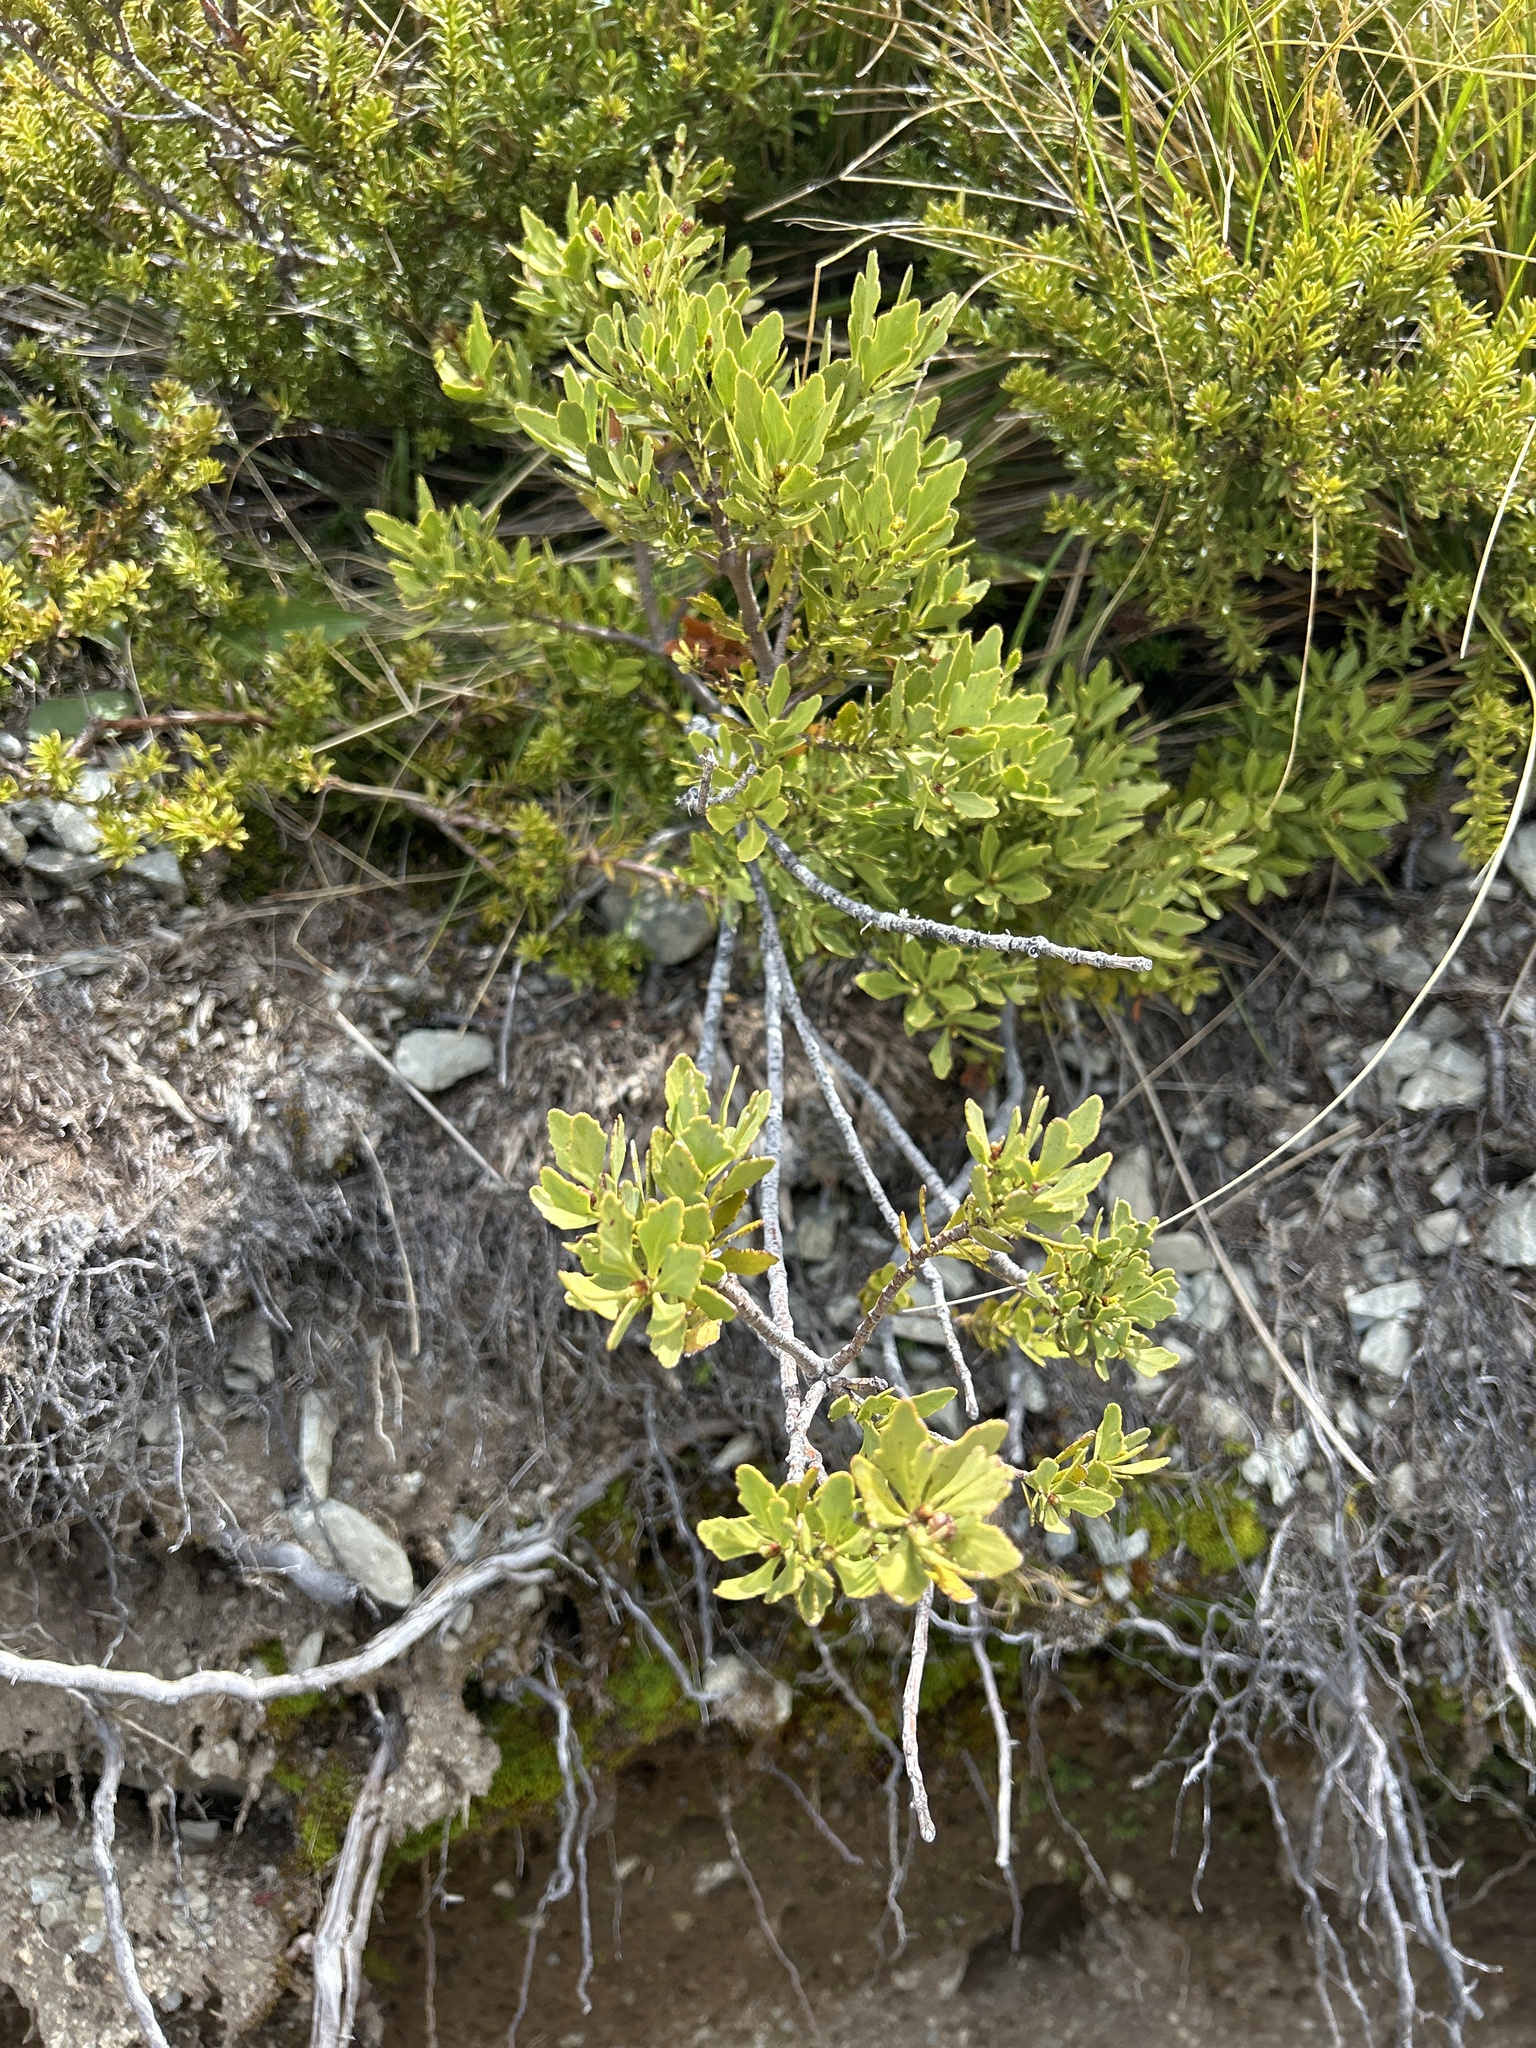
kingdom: Plantae
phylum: Tracheophyta
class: Pinopsida
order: Pinales
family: Phyllocladaceae
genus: Phyllocladus
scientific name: Phyllocladus trichomanoides
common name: Celery pine
